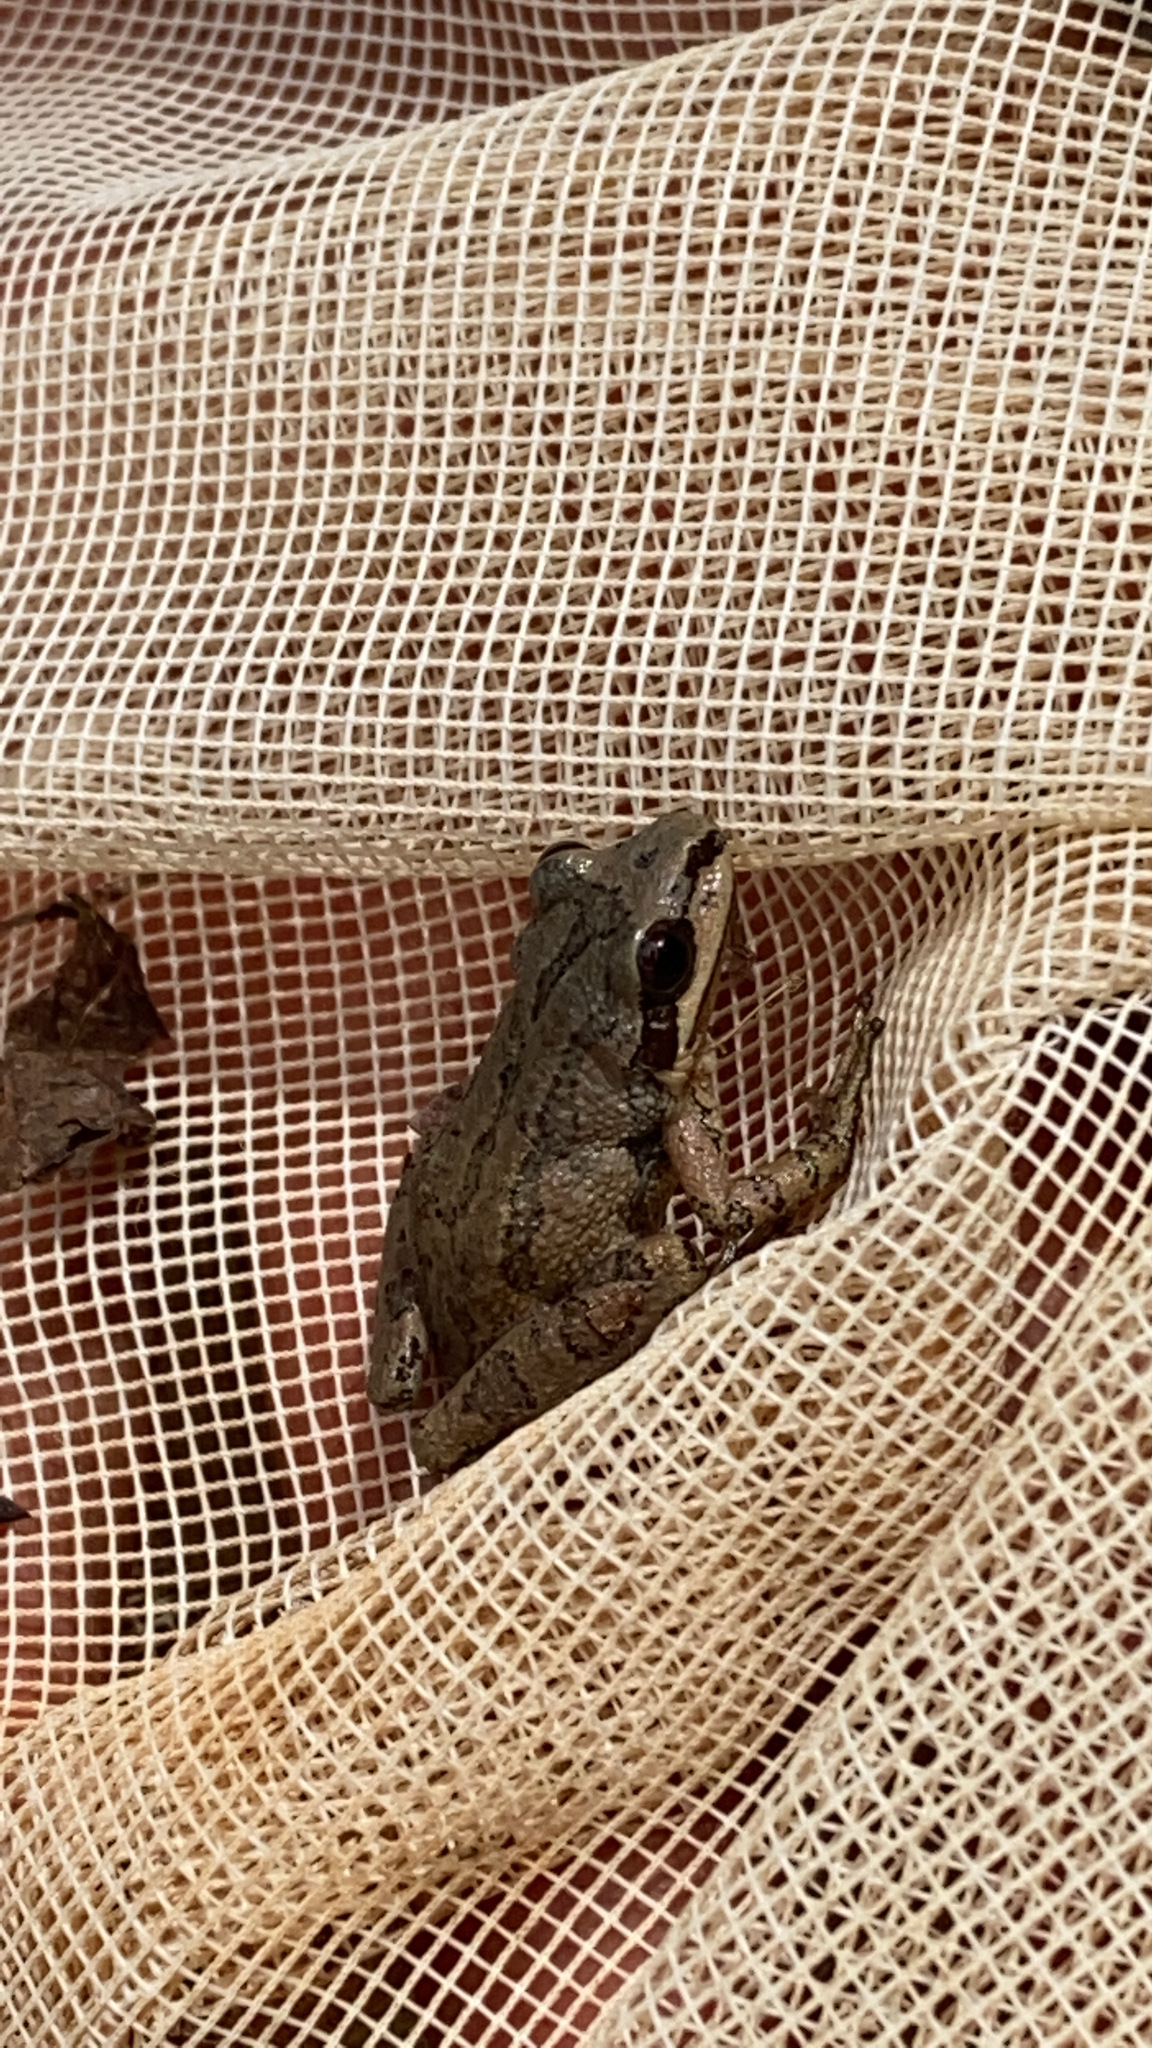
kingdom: Animalia
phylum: Chordata
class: Amphibia
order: Anura
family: Hylidae
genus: Pseudacris
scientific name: Pseudacris feriarum
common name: Upland chorus frog
